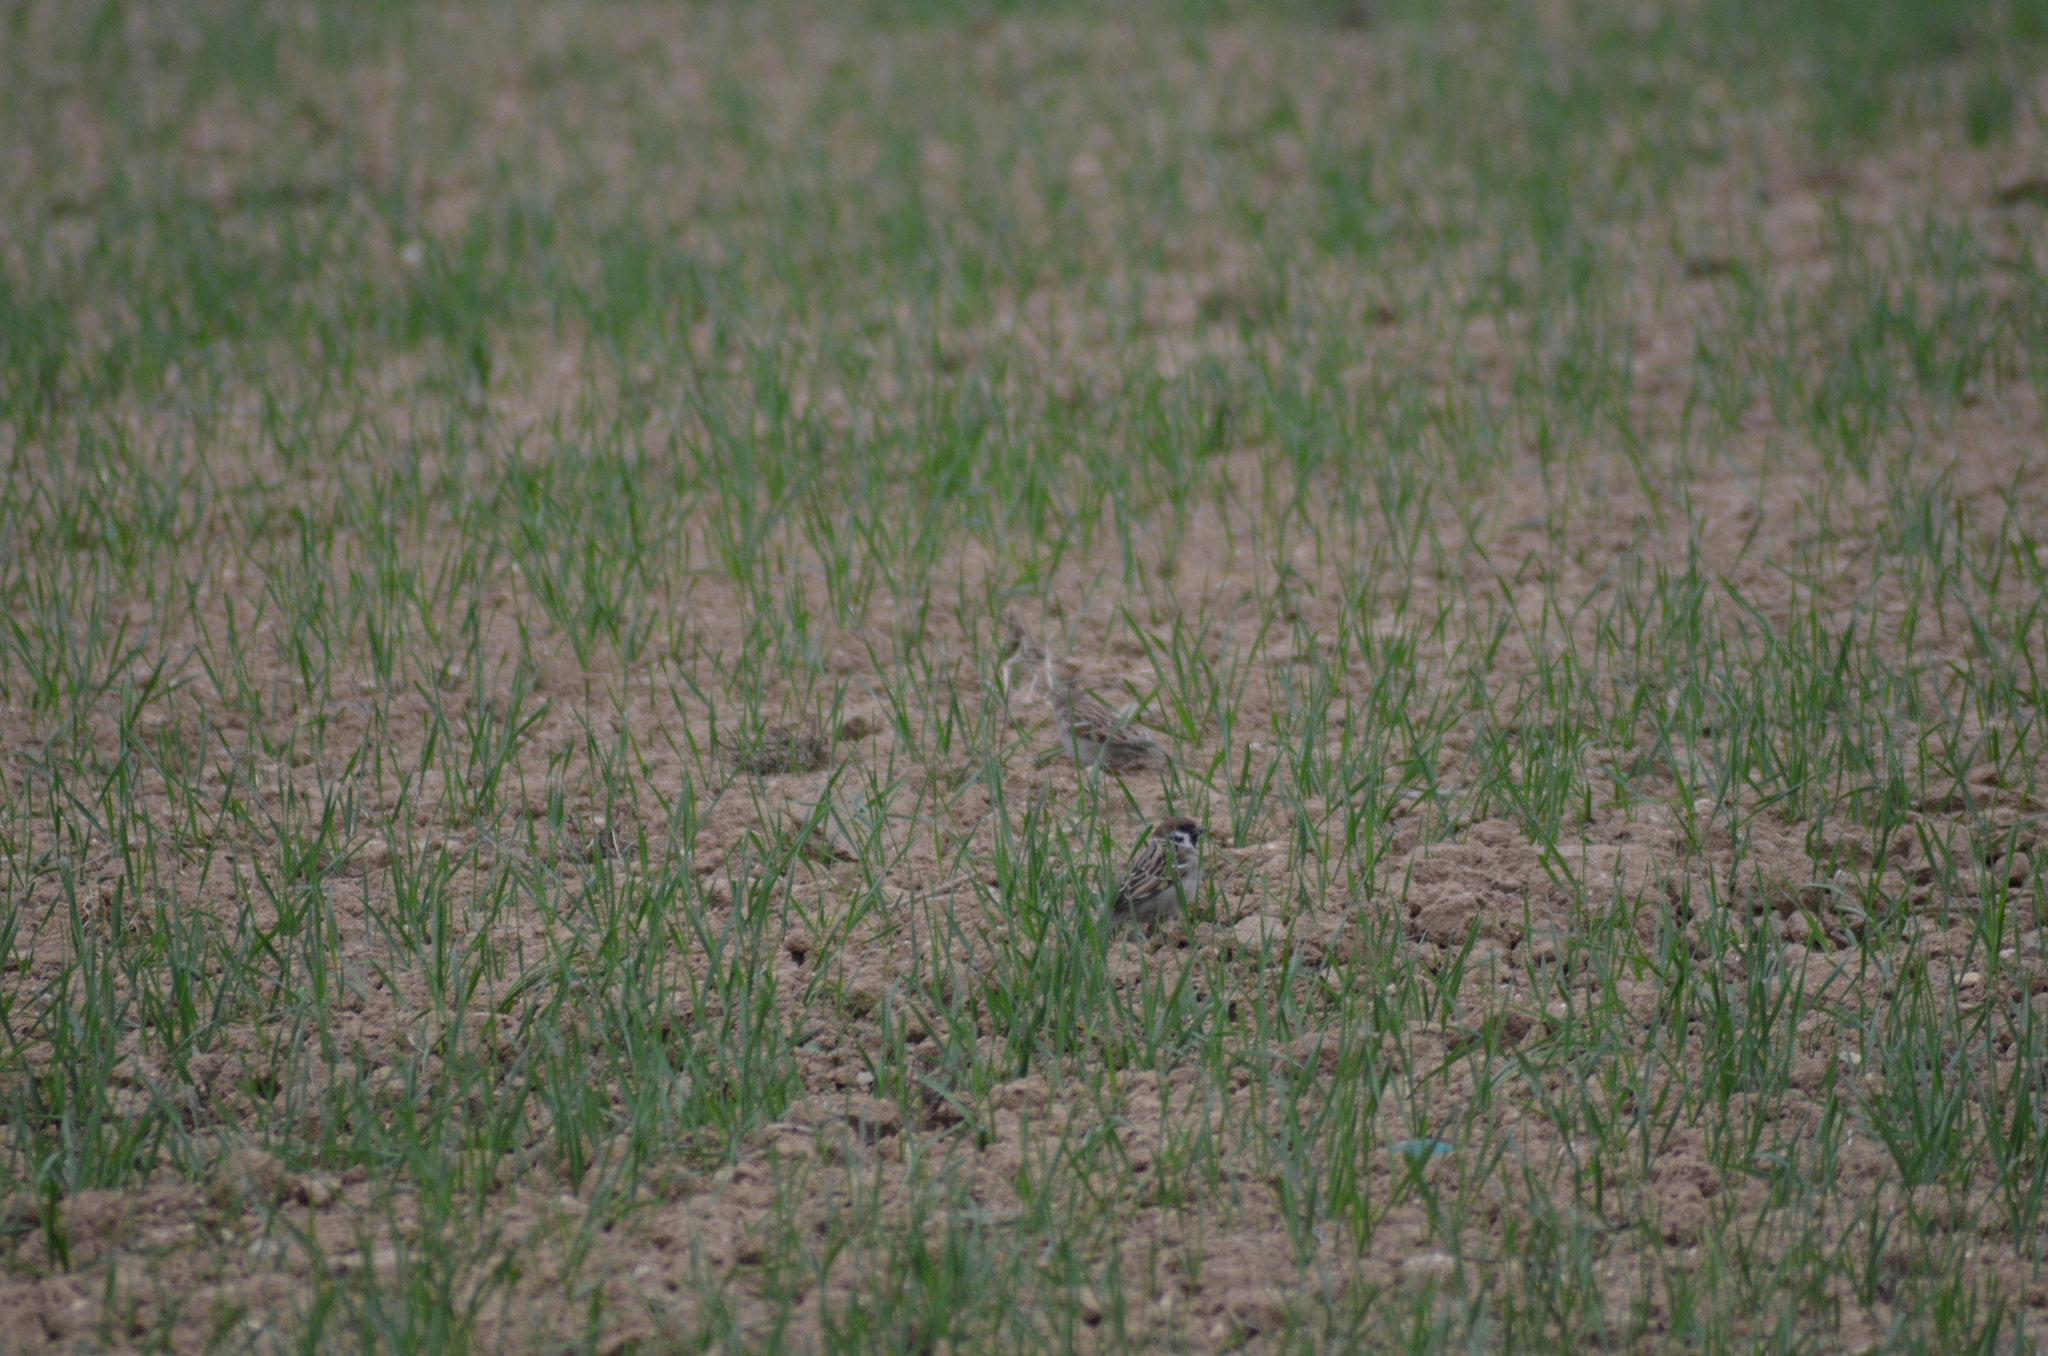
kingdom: Animalia
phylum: Chordata
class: Aves
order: Passeriformes
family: Passeridae
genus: Passer
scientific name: Passer montanus
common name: Eurasian tree sparrow
